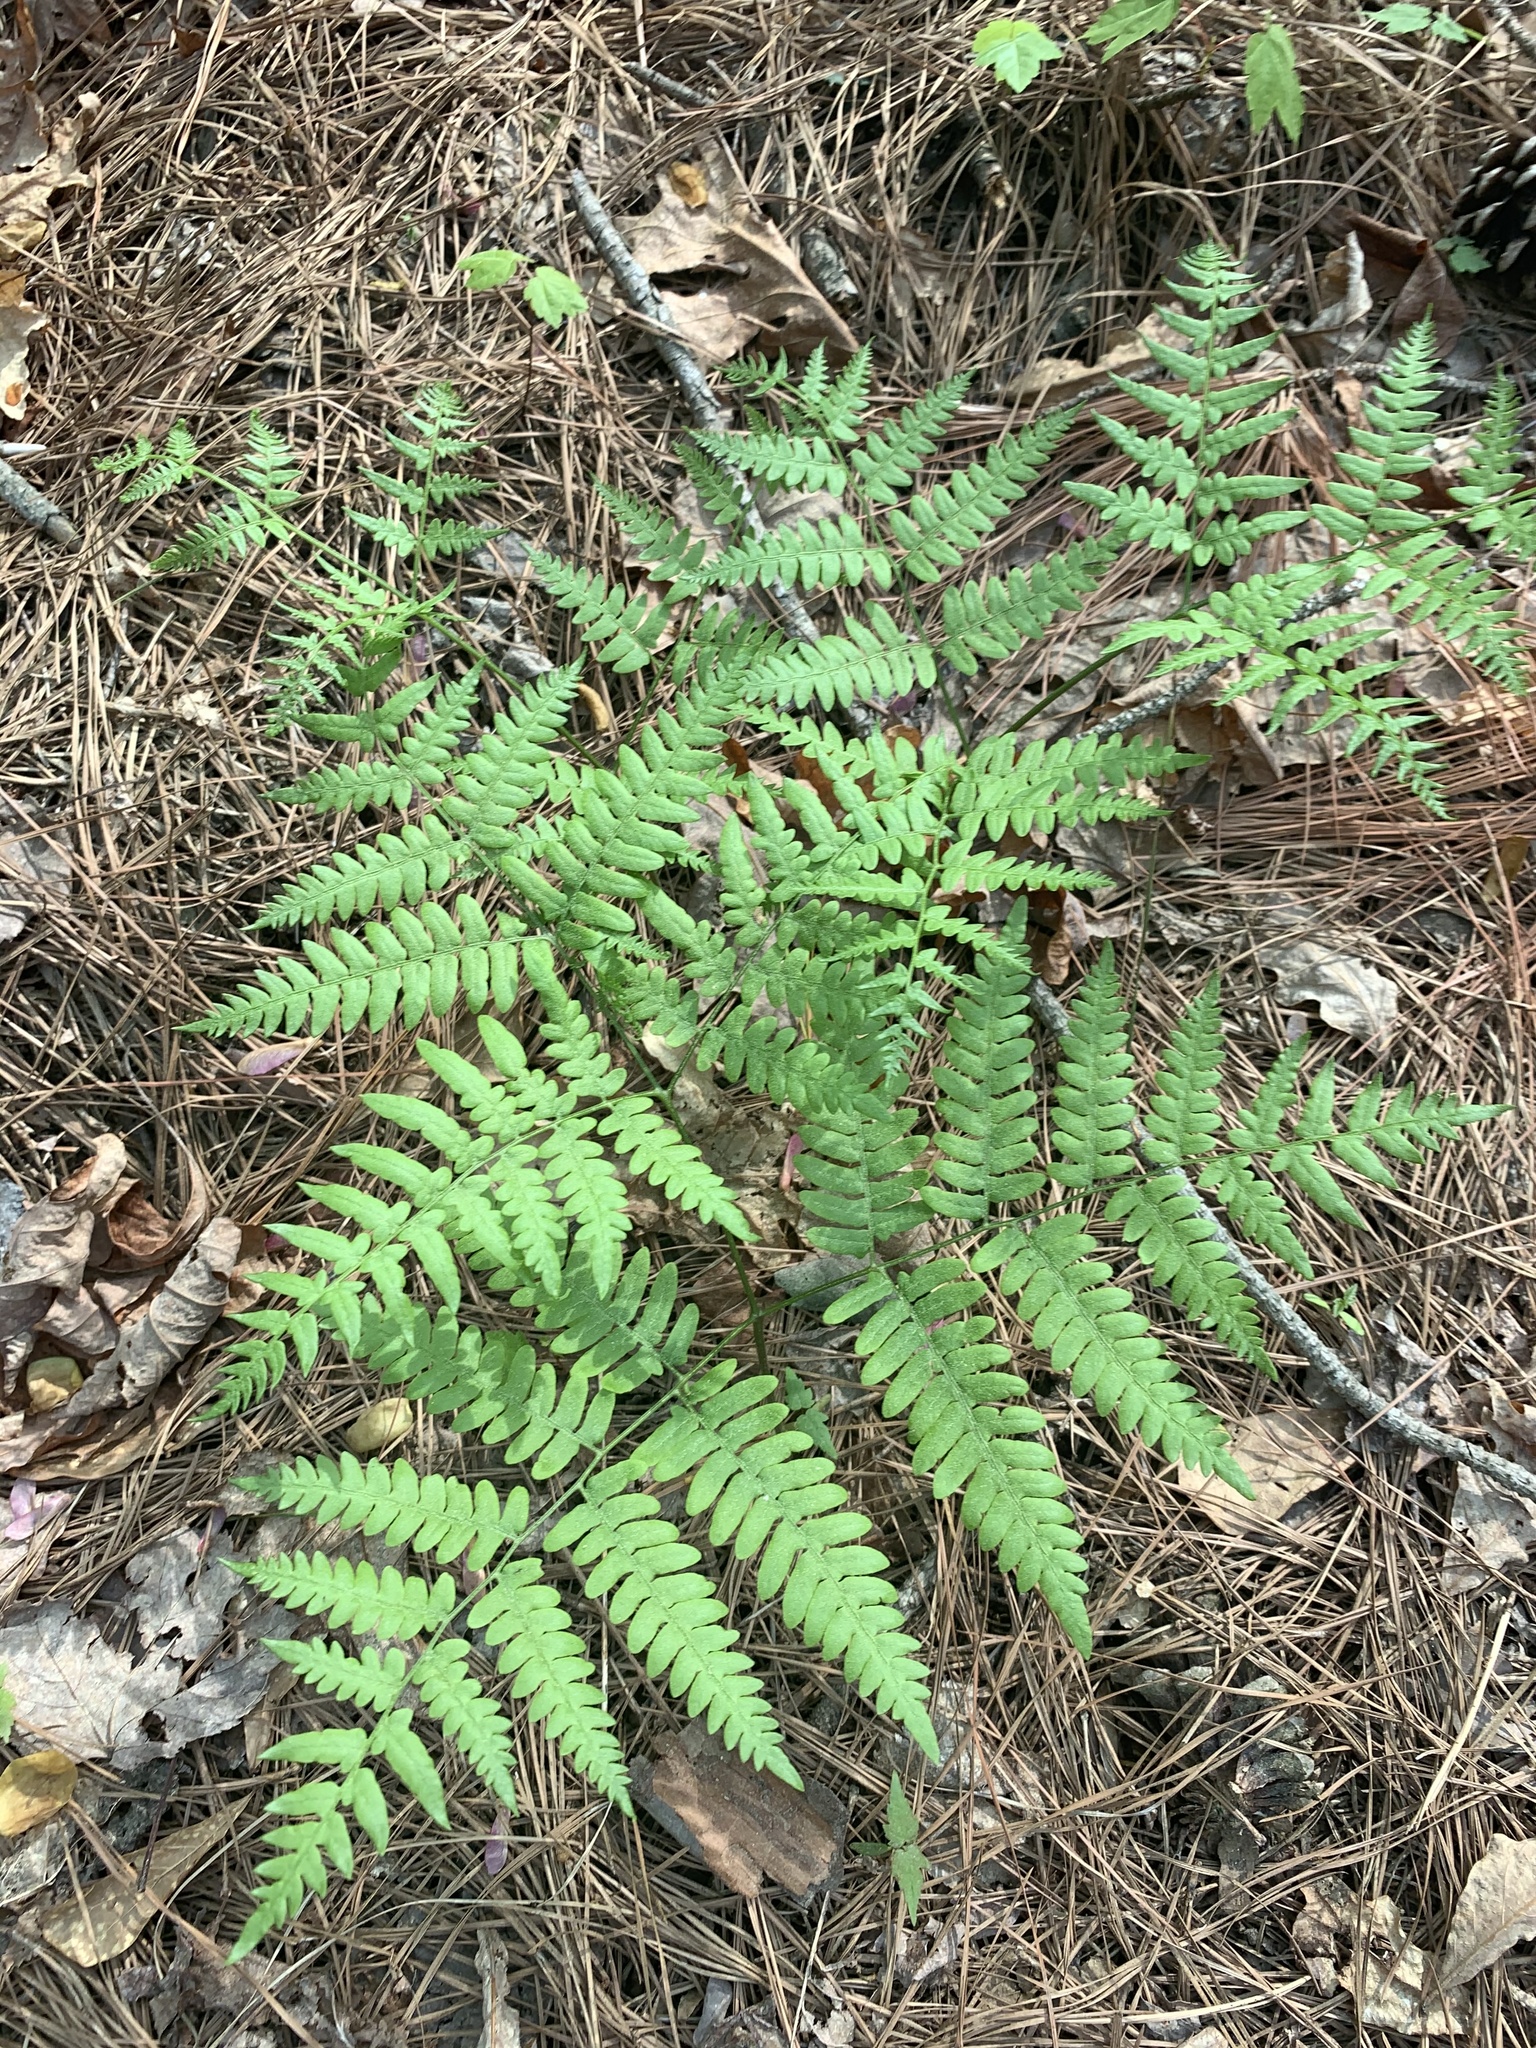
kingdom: Plantae
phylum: Tracheophyta
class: Polypodiopsida
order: Polypodiales
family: Dennstaedtiaceae
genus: Pteridium
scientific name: Pteridium
